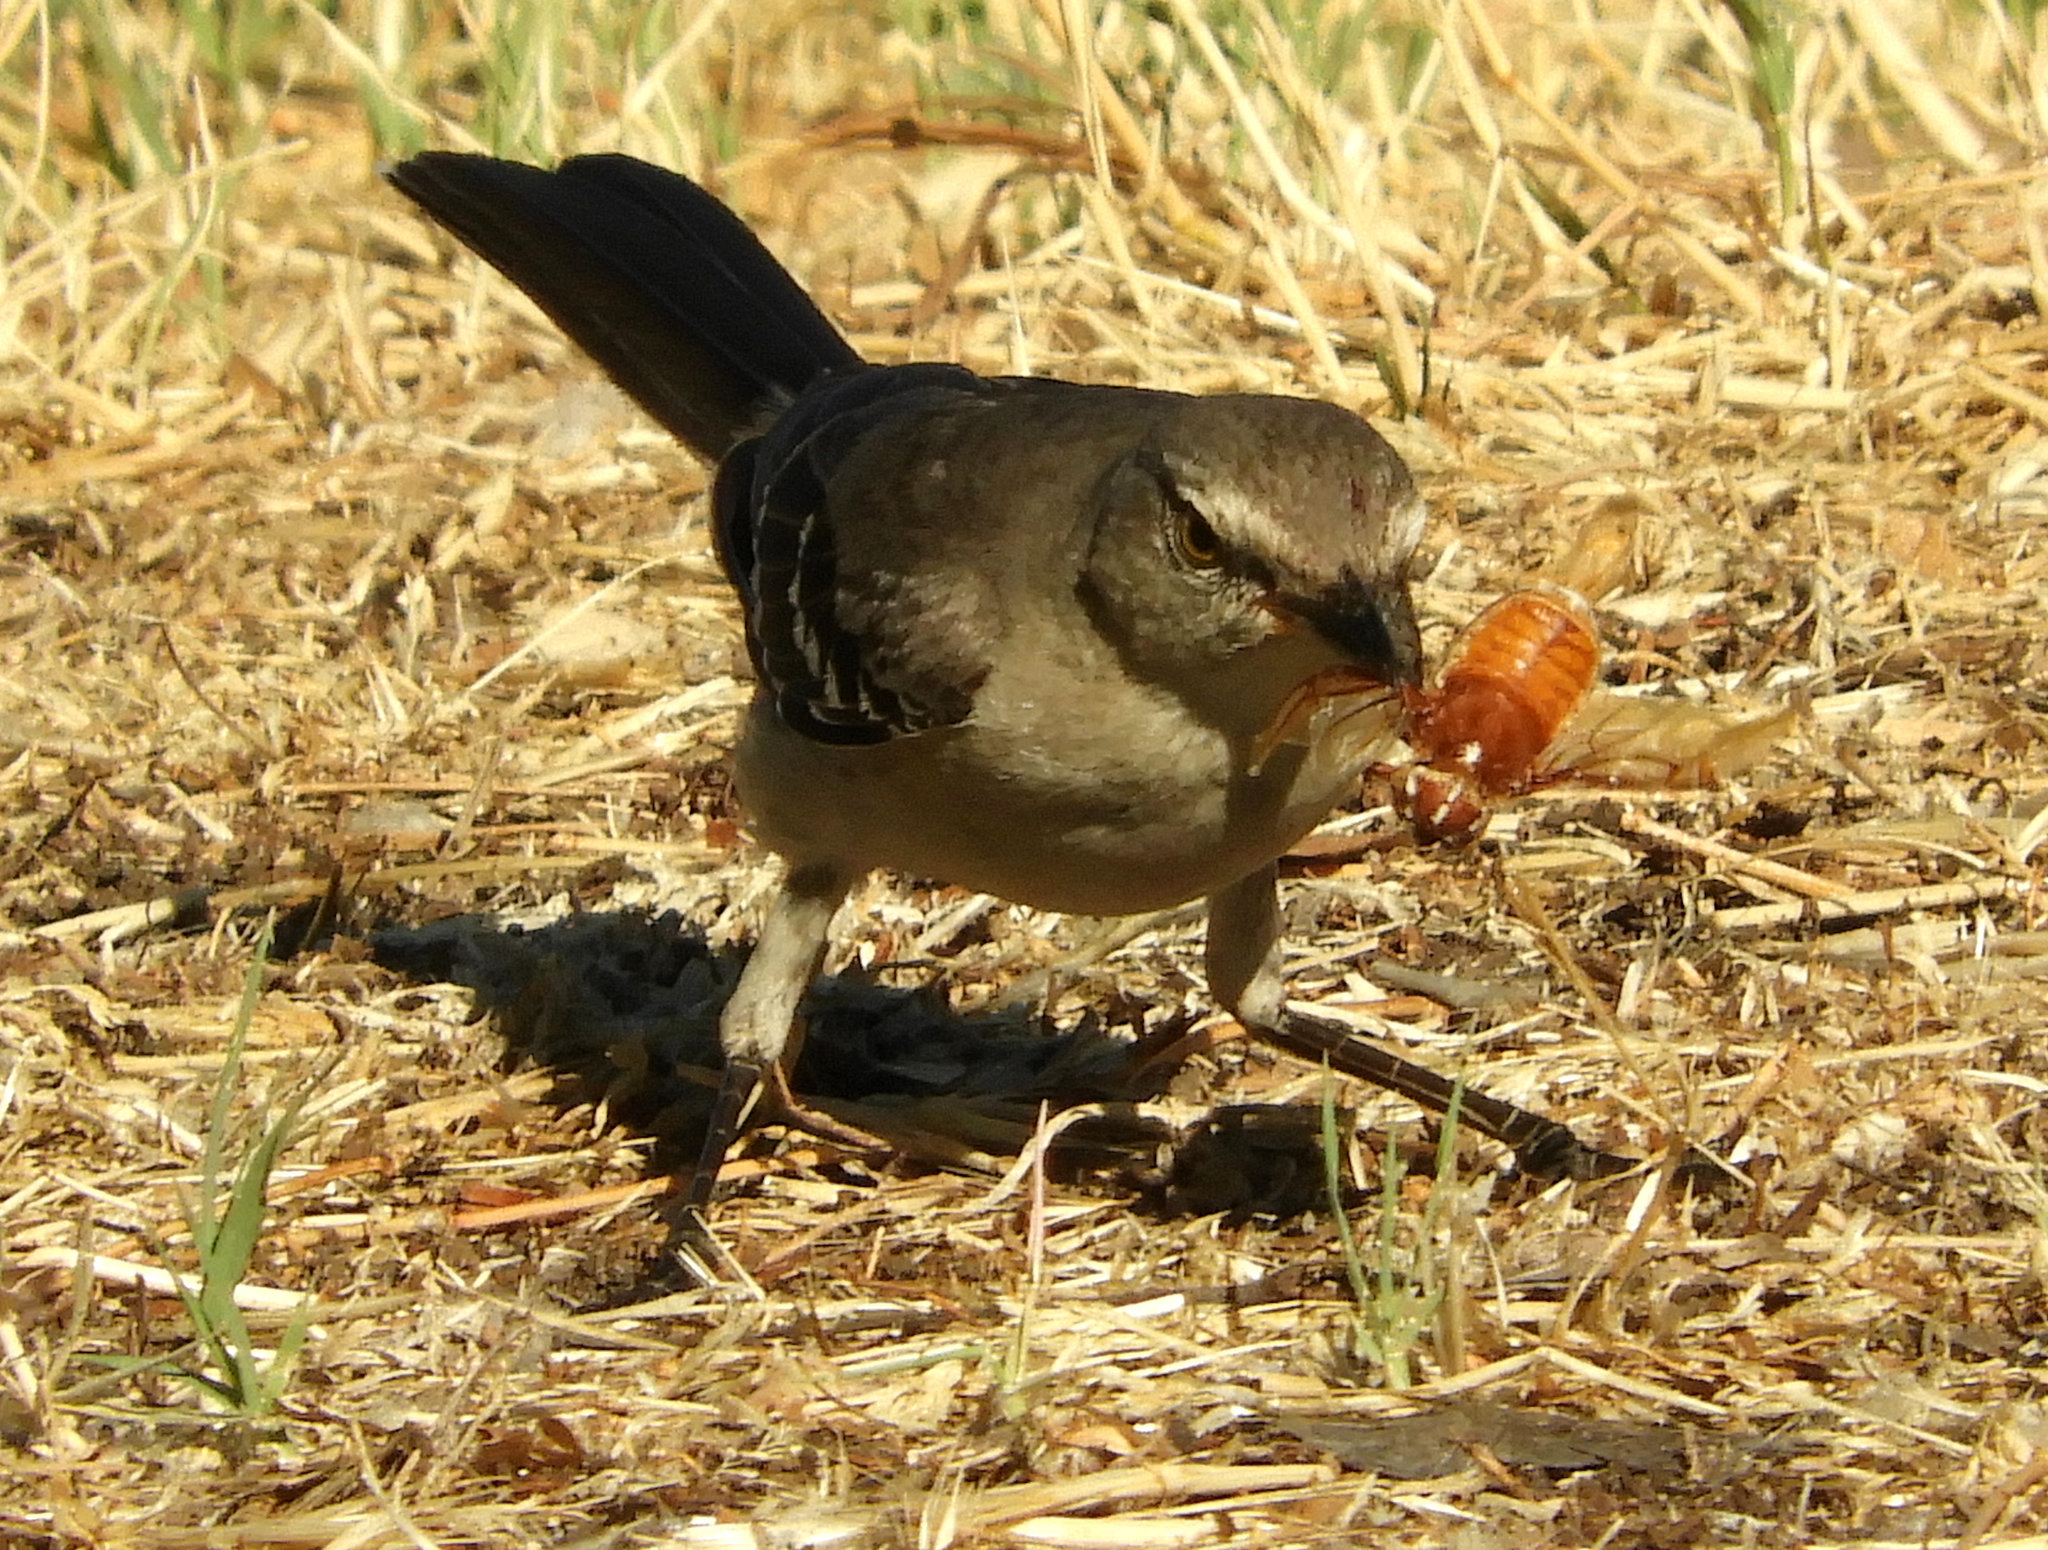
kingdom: Animalia
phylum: Chordata
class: Aves
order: Passeriformes
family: Mimidae
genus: Mimus
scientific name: Mimus polyglottos
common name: Northern mockingbird
